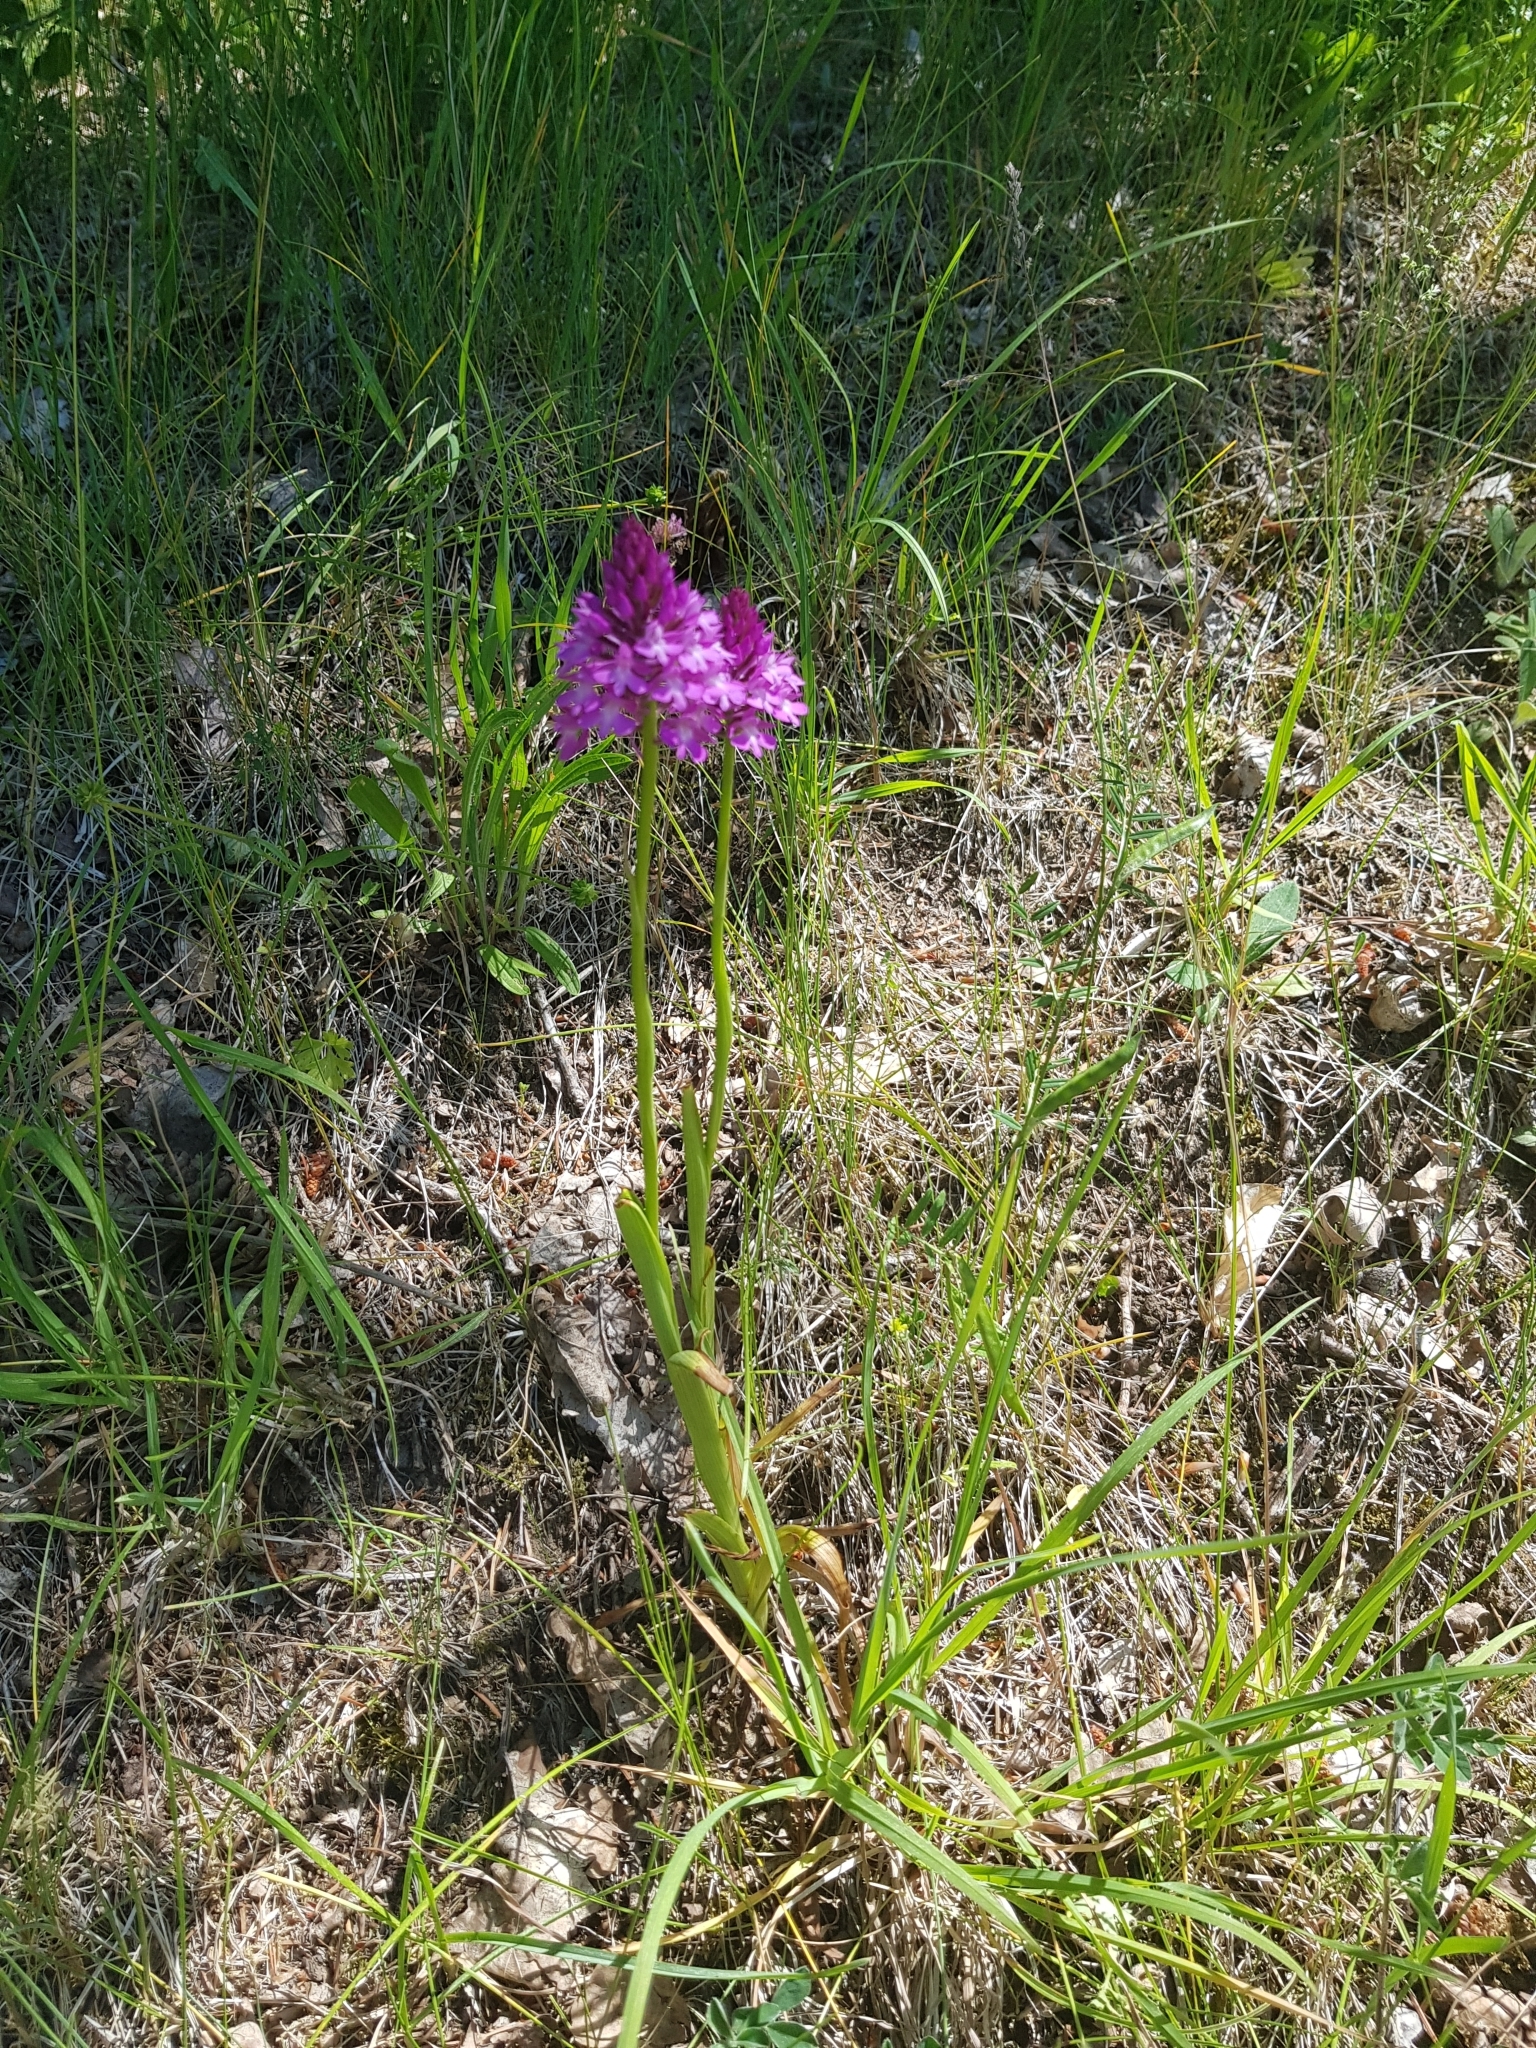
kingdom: Plantae
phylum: Tracheophyta
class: Liliopsida
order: Asparagales
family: Orchidaceae
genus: Anacamptis
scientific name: Anacamptis pyramidalis
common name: Pyramidal orchid
